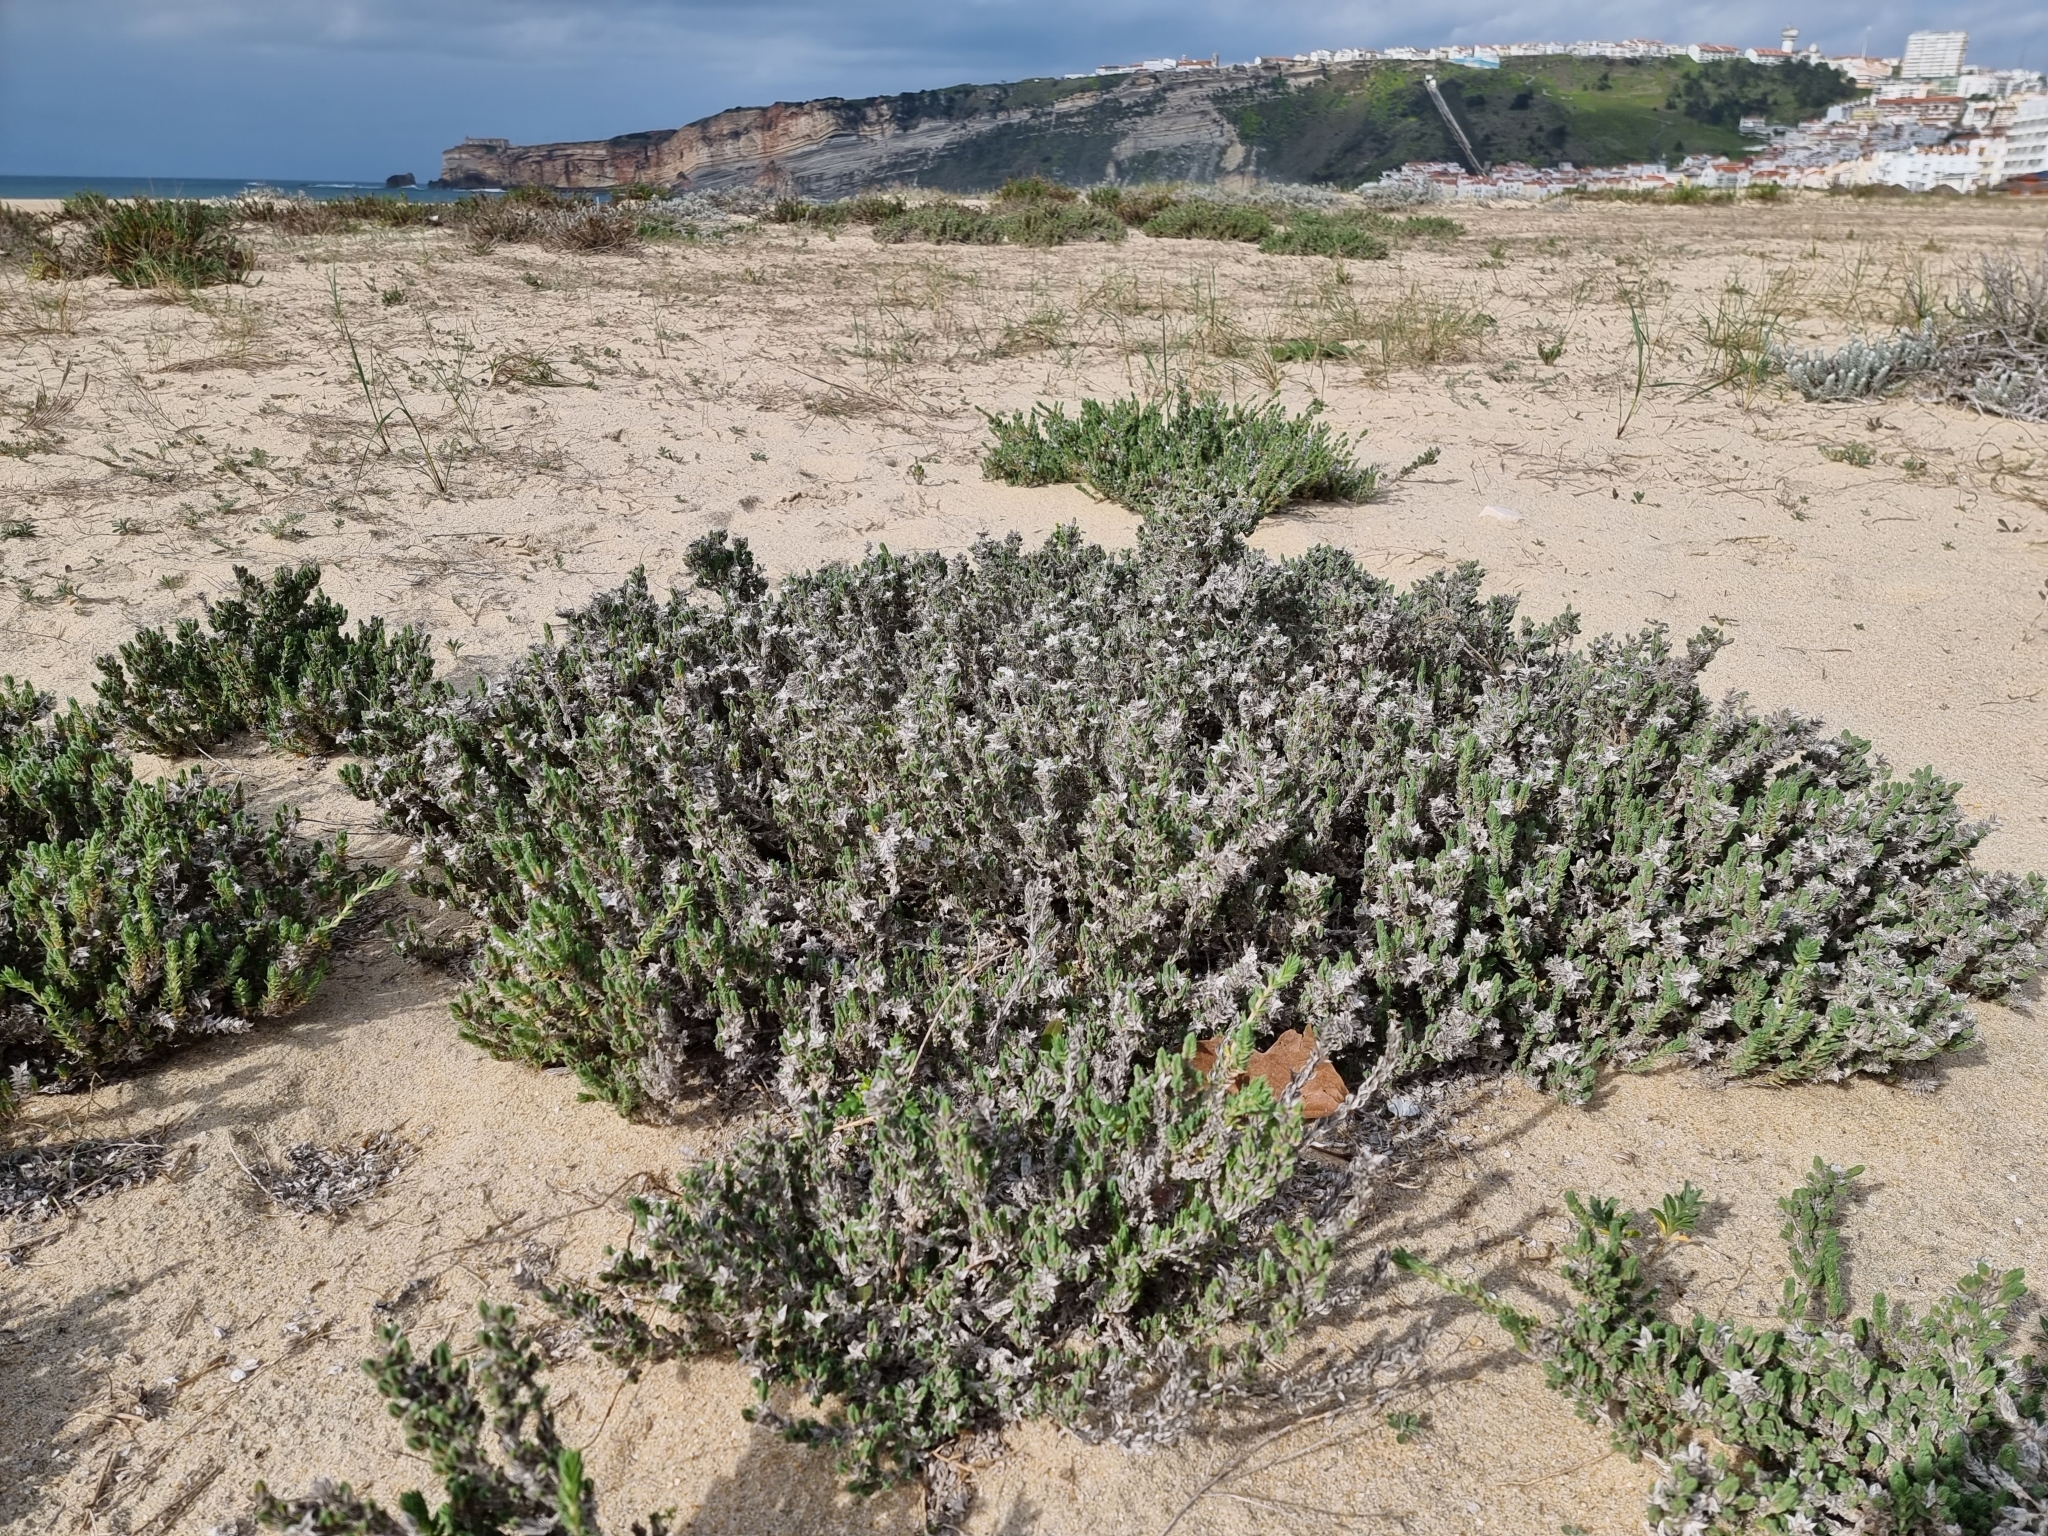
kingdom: Plantae
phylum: Tracheophyta
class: Magnoliopsida
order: Gentianales
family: Rubiaceae
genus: Crucianella
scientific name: Crucianella maritima
